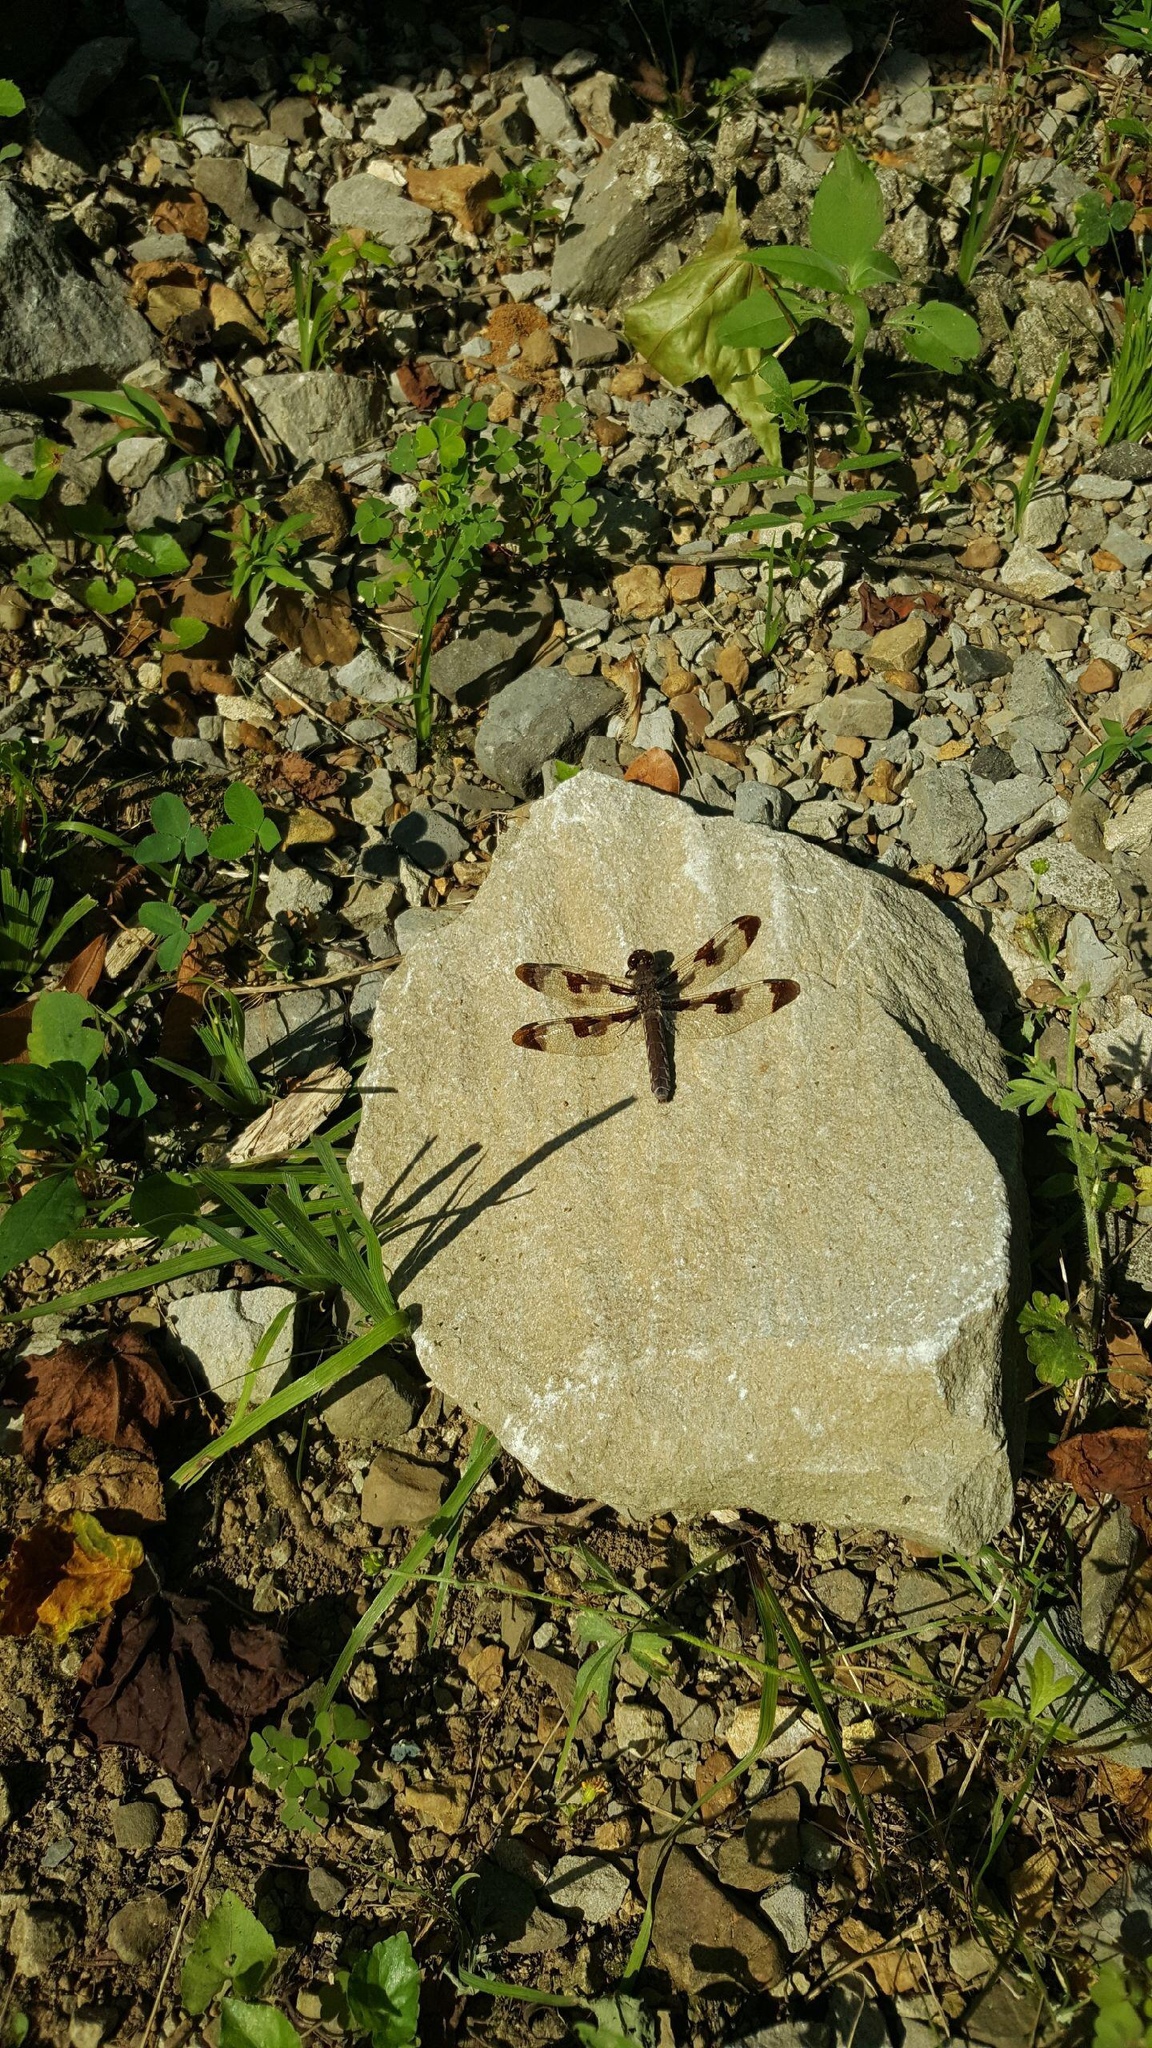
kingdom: Animalia
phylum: Arthropoda
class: Insecta
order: Odonata
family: Libellulidae
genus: Plathemis
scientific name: Plathemis lydia
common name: Common whitetail
